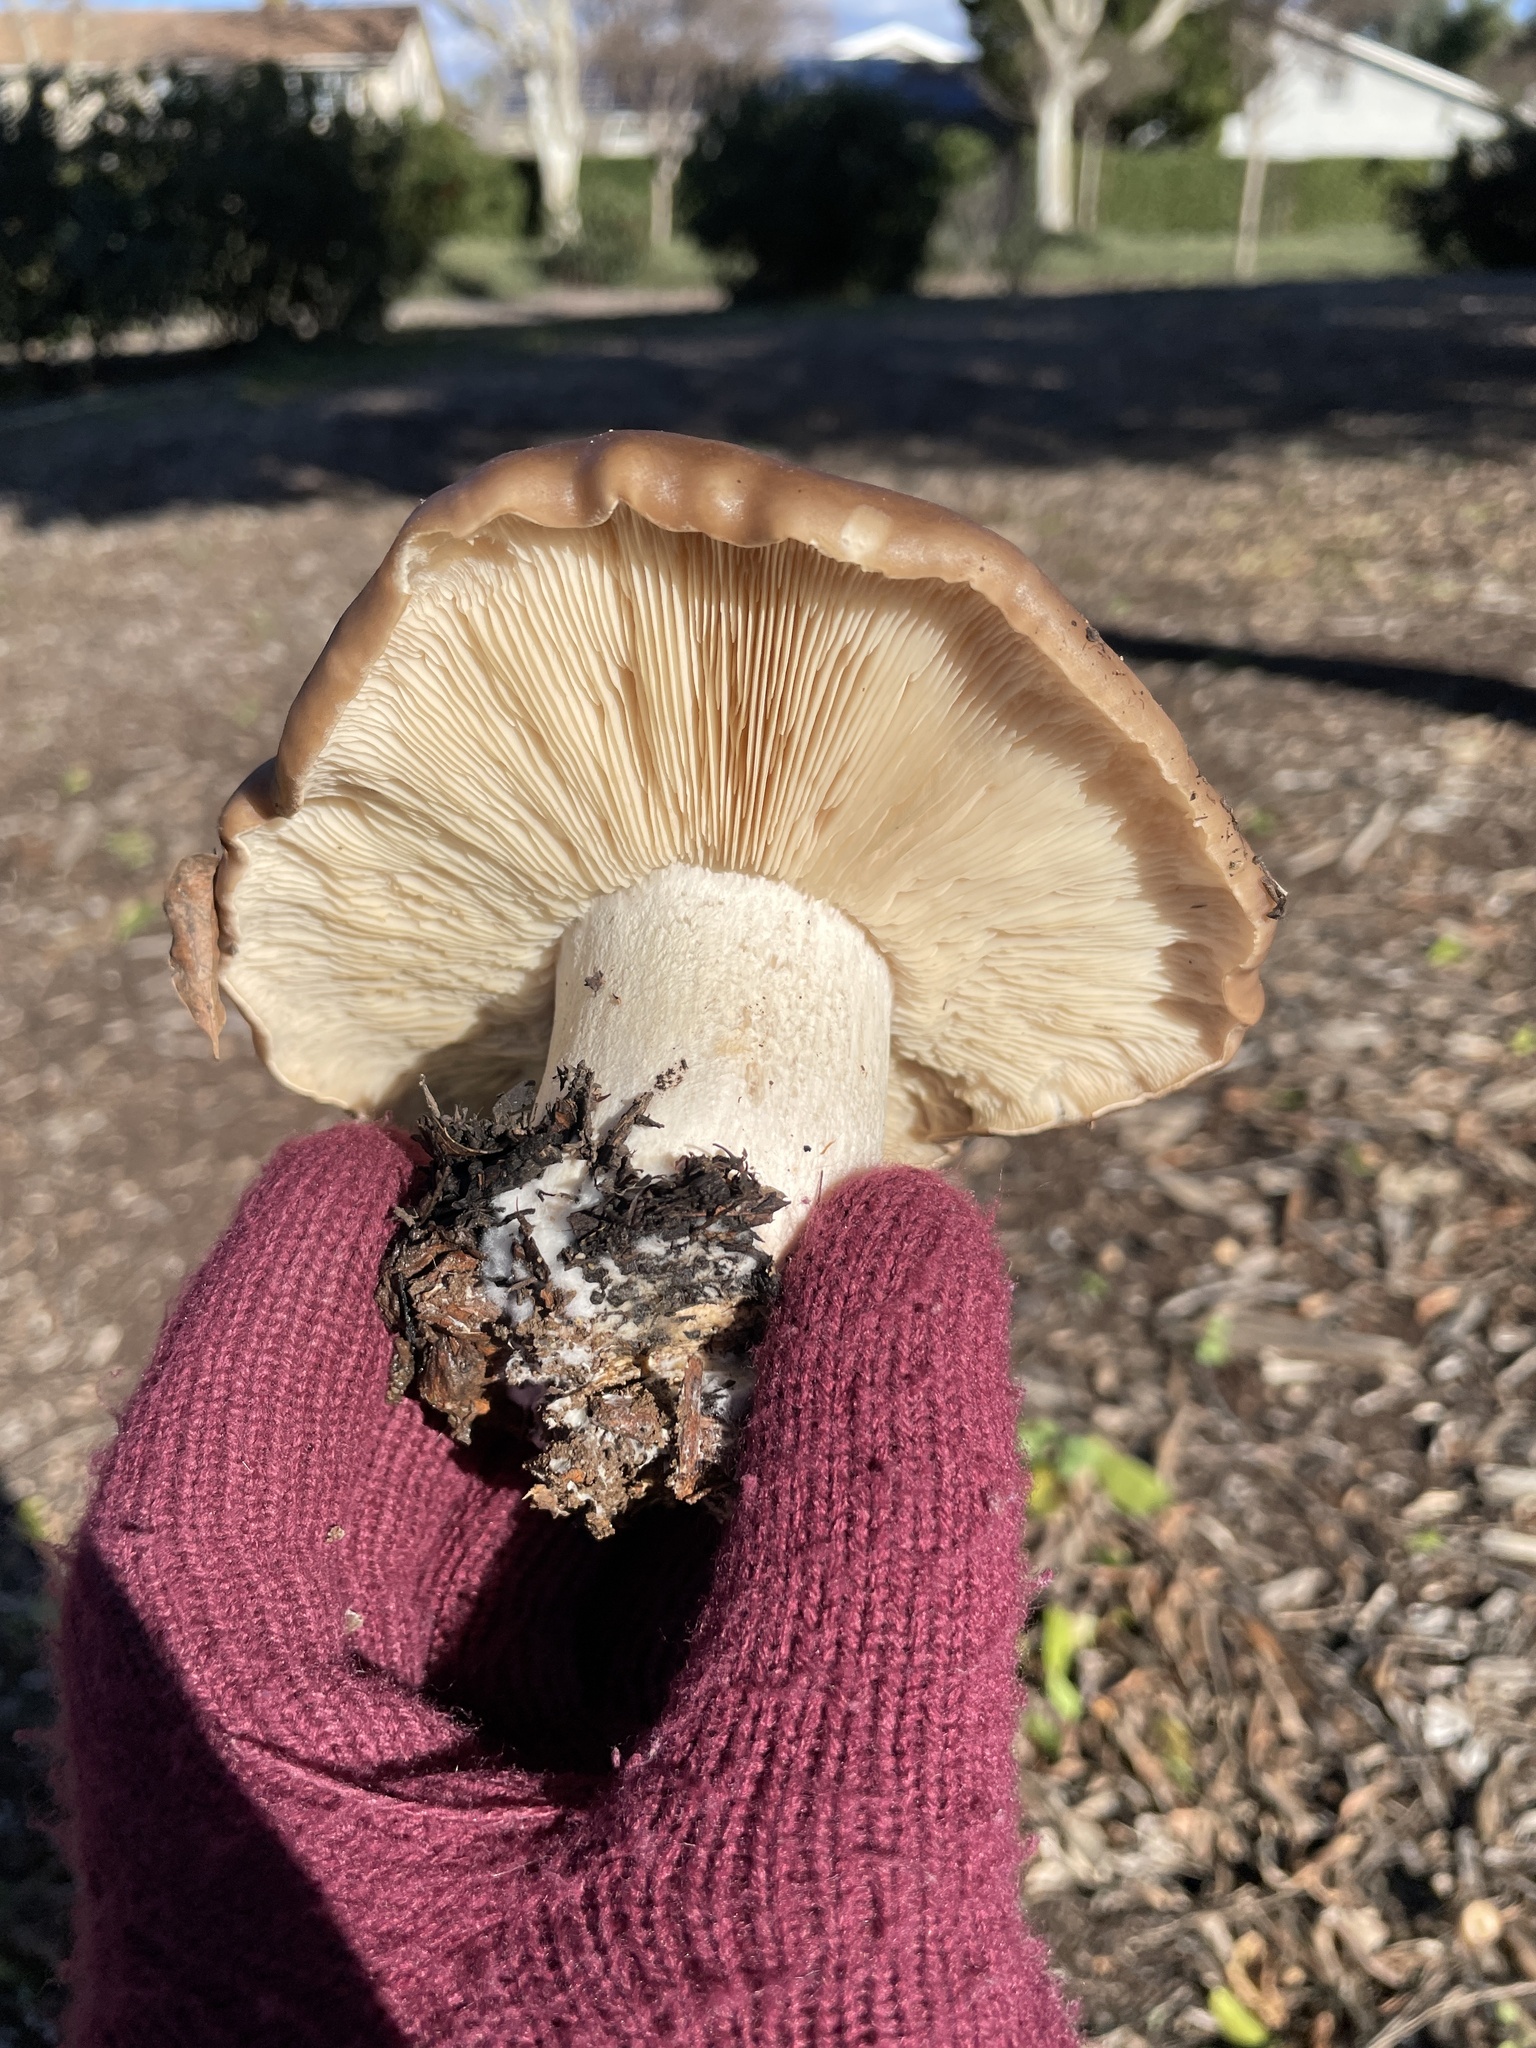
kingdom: Fungi
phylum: Basidiomycota
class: Agaricomycetes
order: Agaricales
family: Tricholomataceae
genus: Collybia
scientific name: Collybia
